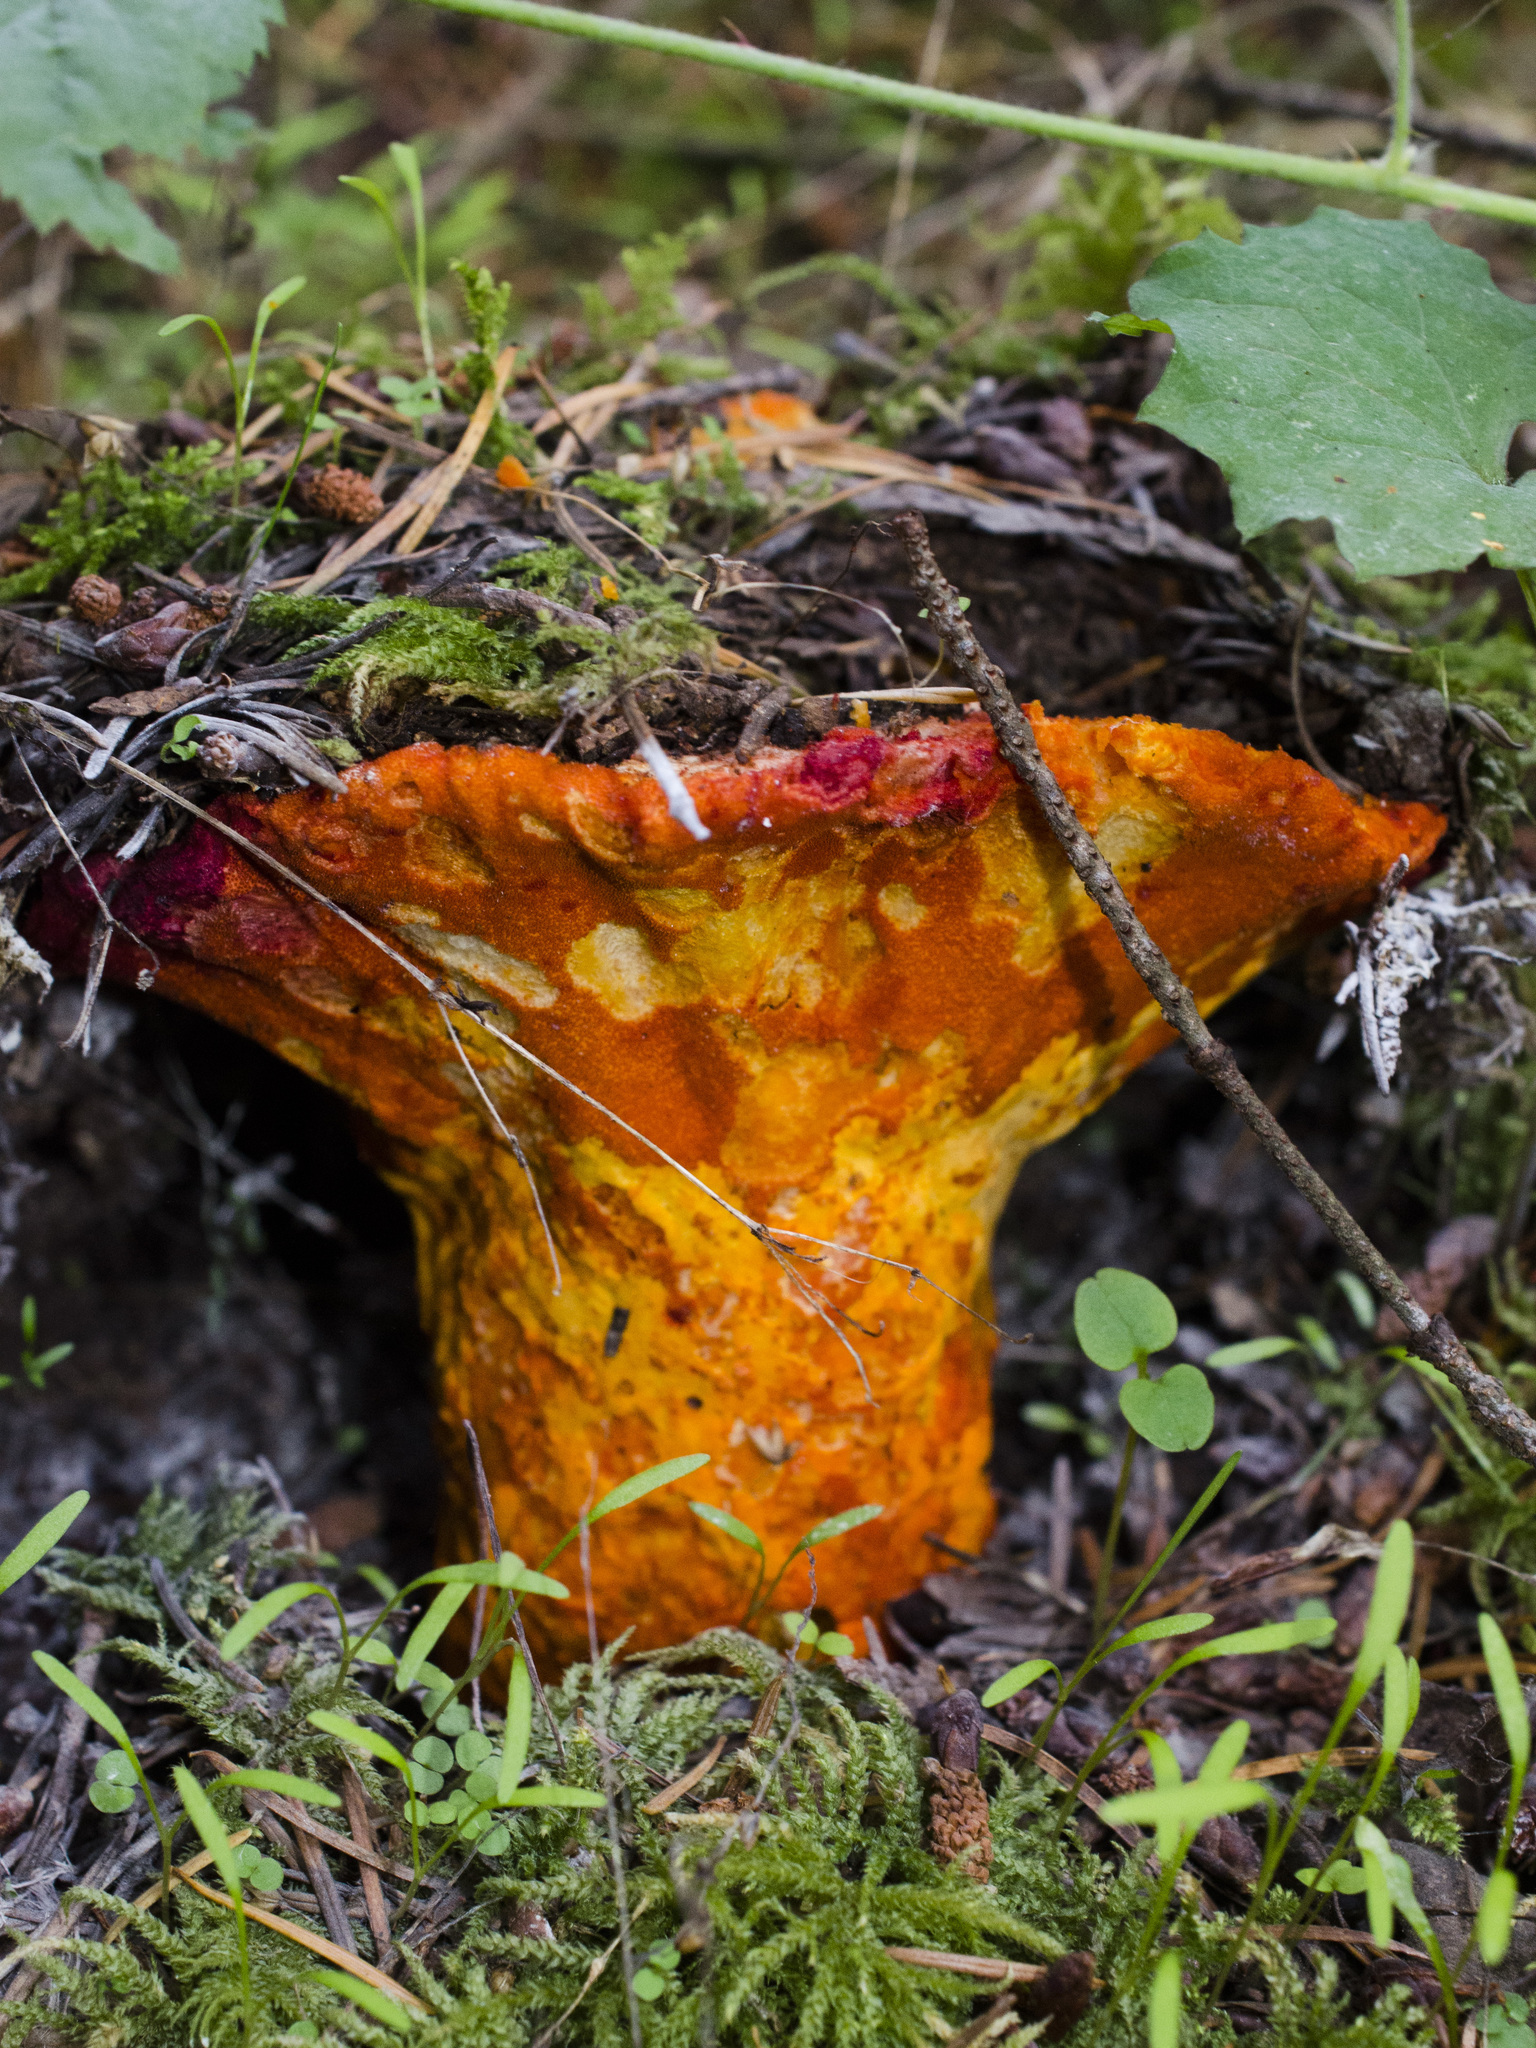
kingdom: Fungi
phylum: Ascomycota
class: Sordariomycetes
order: Hypocreales
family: Hypocreaceae
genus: Hypomyces
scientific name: Hypomyces lactifluorum
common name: Lobster mushroom
